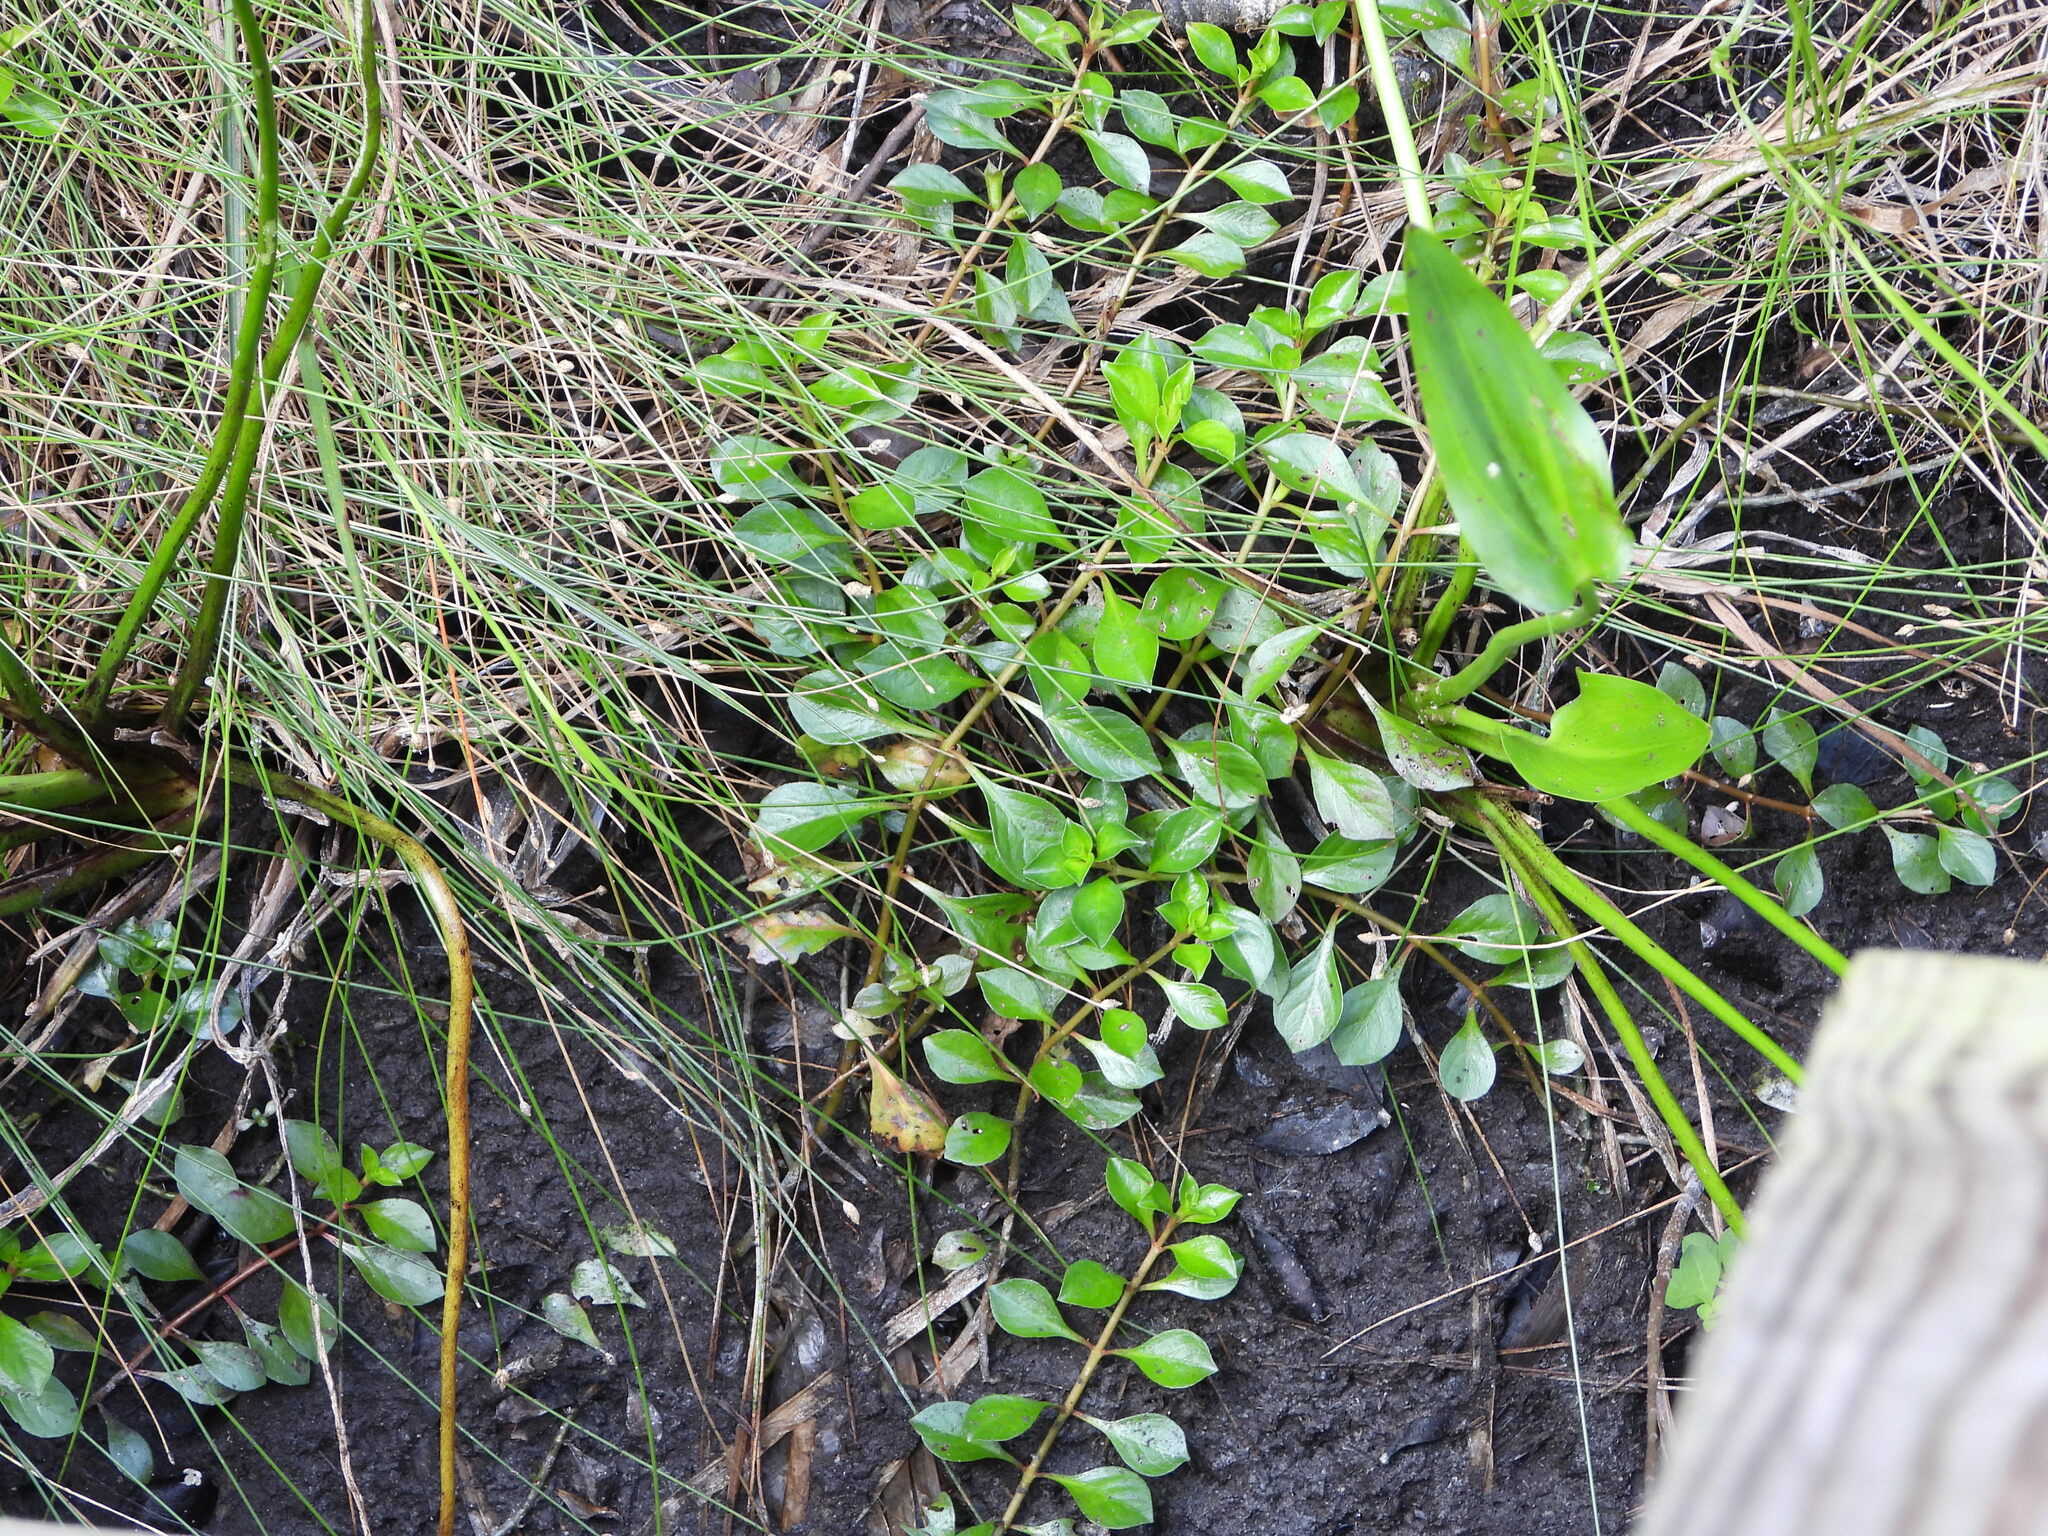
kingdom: Plantae
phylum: Tracheophyta
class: Liliopsida
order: Poales
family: Cyperaceae
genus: Eleocharis
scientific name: Eleocharis geniculata
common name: Canada spikesedge
